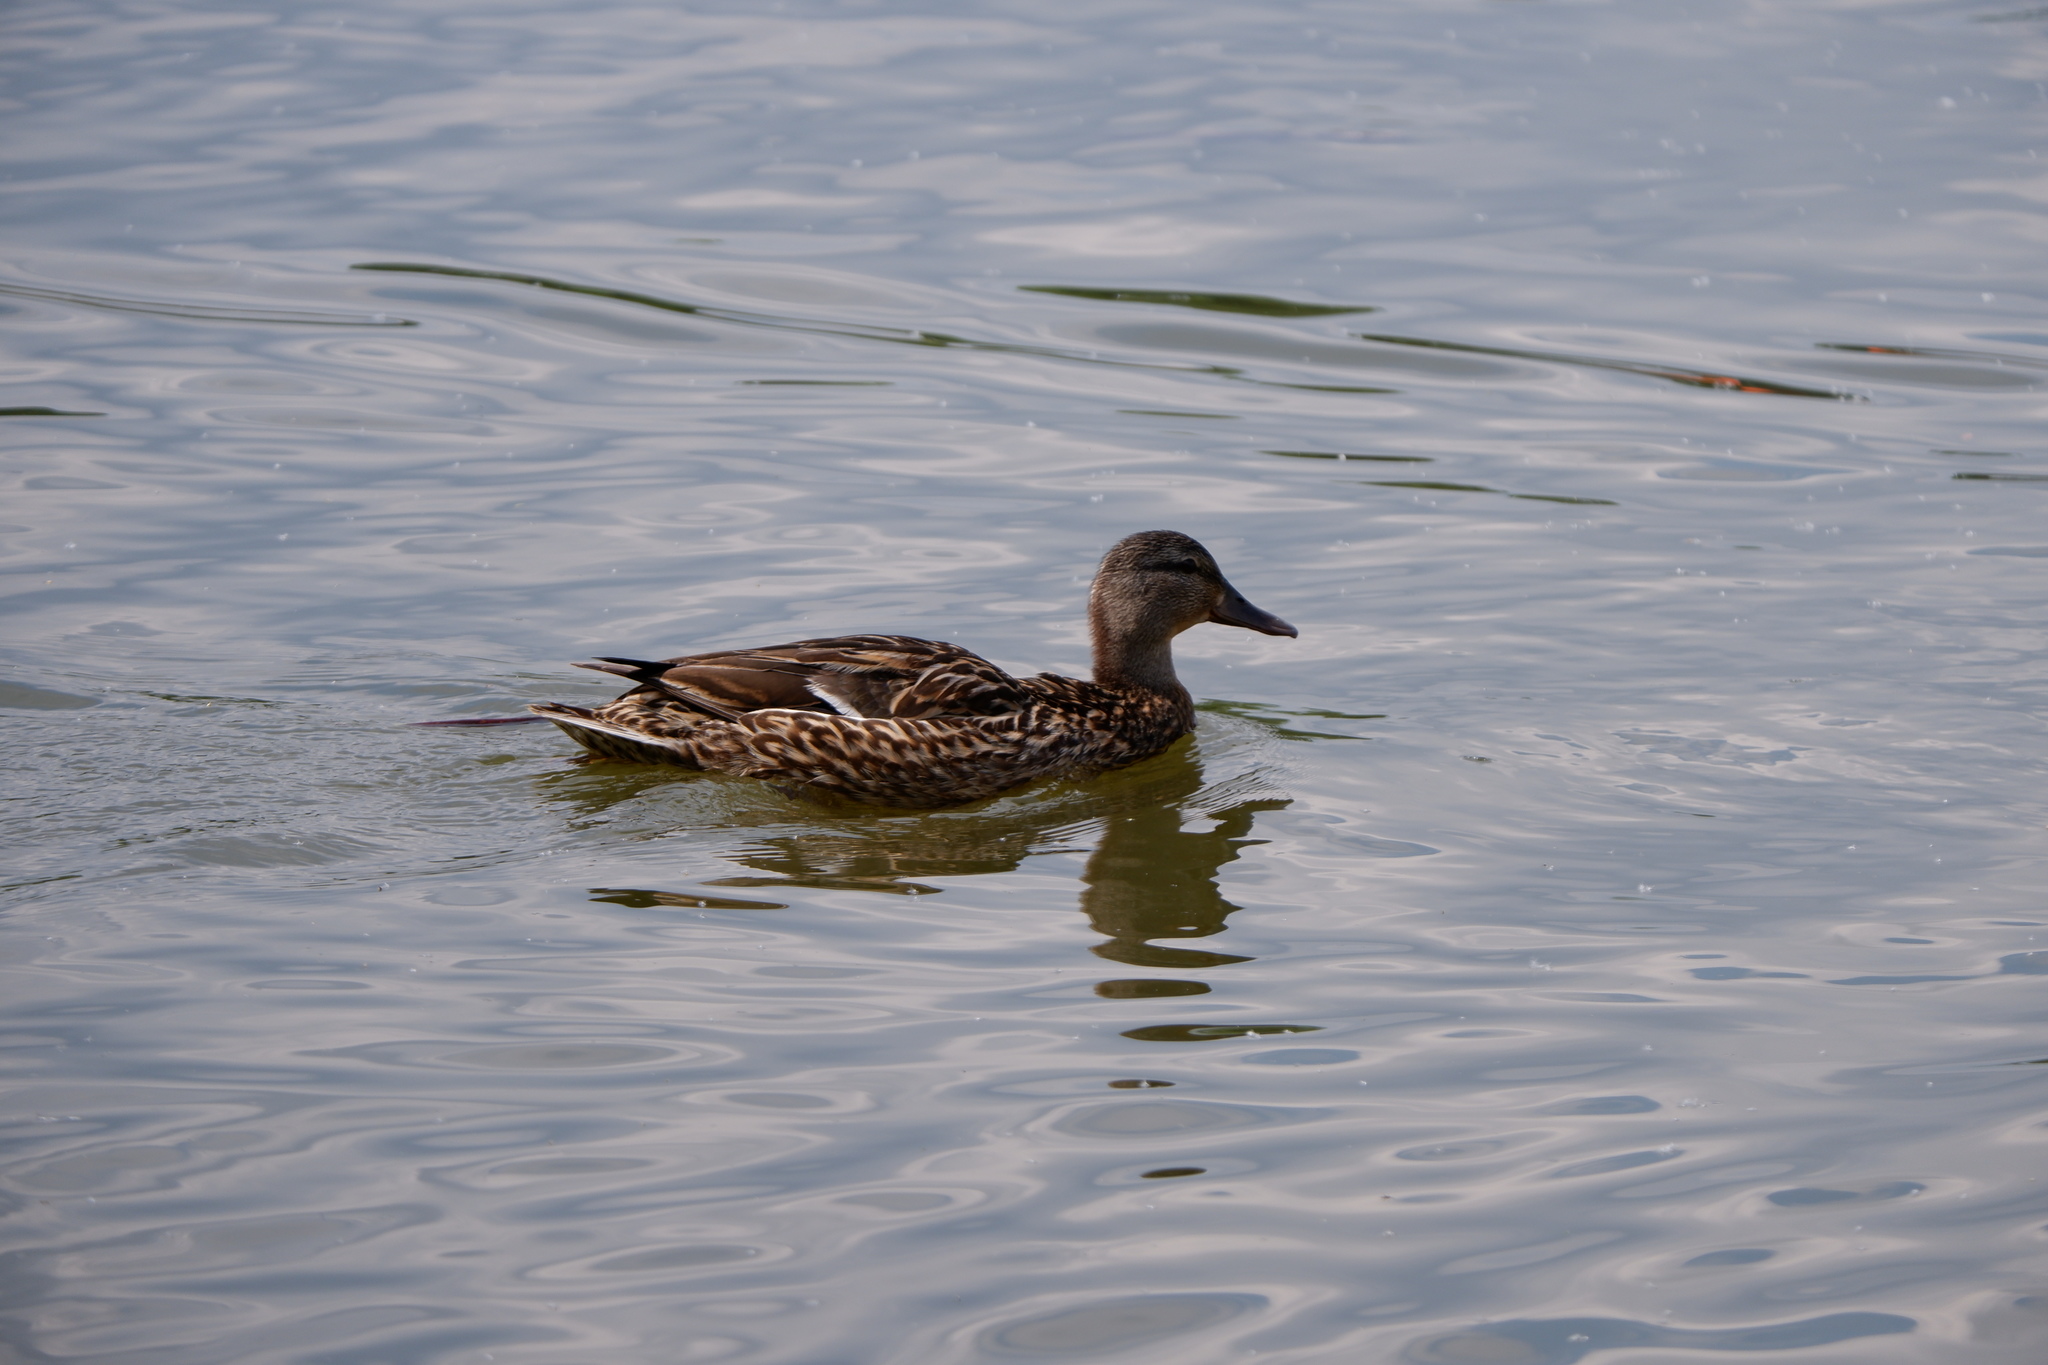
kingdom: Animalia
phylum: Chordata
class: Aves
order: Anseriformes
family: Anatidae
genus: Anas
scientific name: Anas platyrhynchos
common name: Mallard
